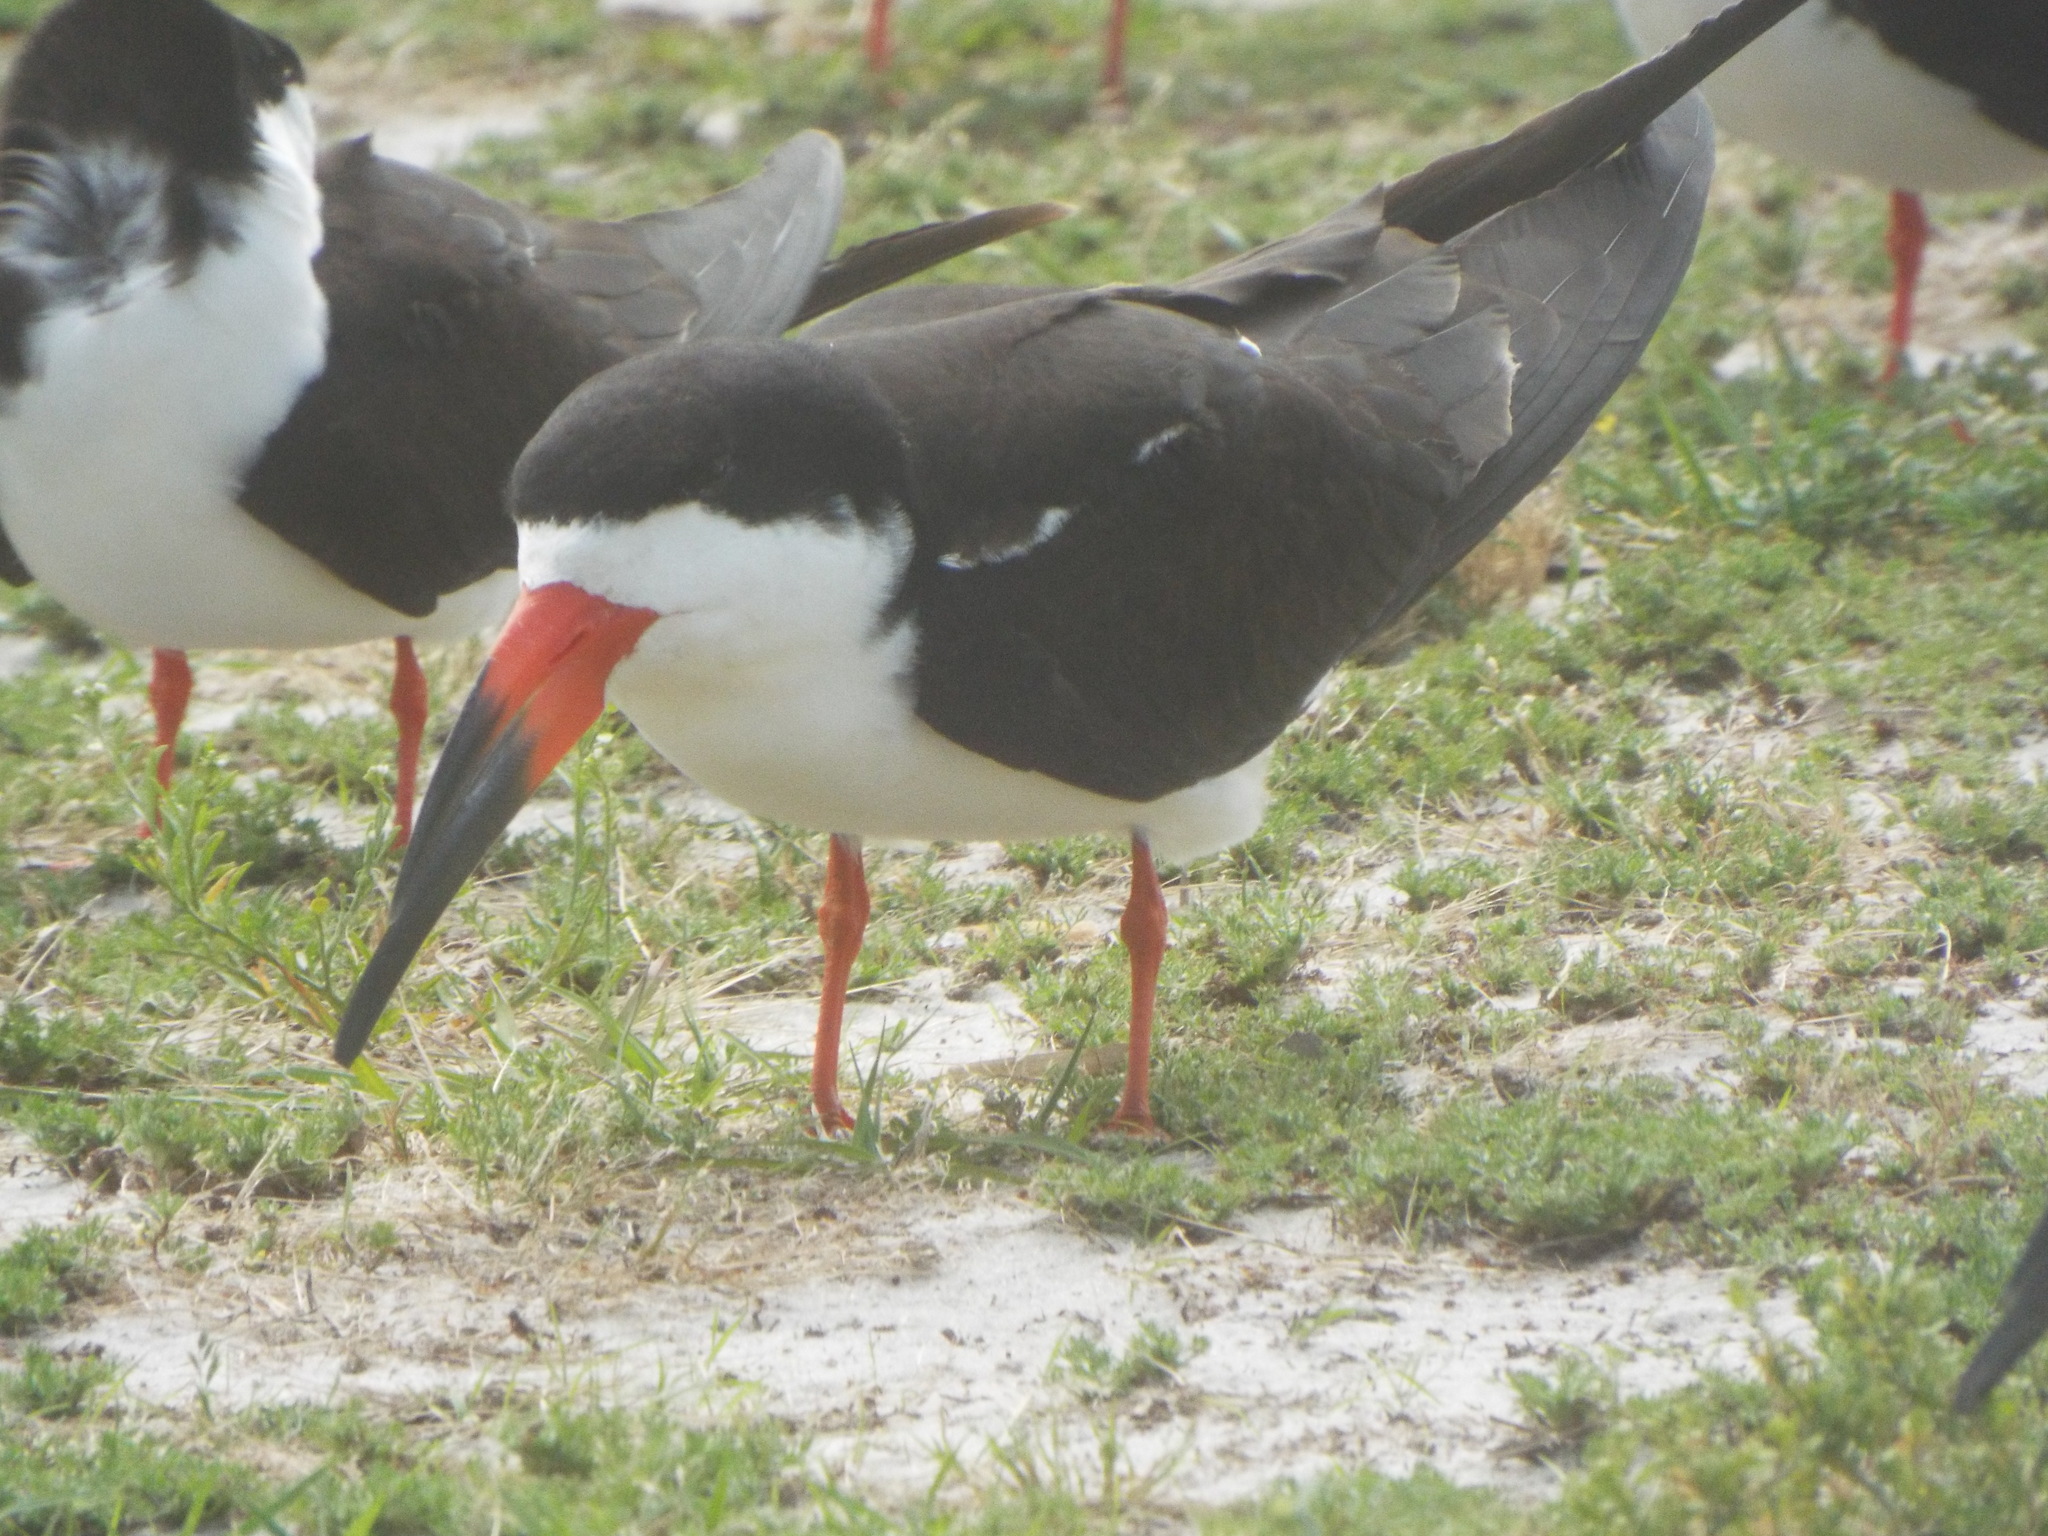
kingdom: Animalia
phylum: Chordata
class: Aves
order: Charadriiformes
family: Laridae
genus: Rynchops
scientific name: Rynchops niger
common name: Black skimmer
